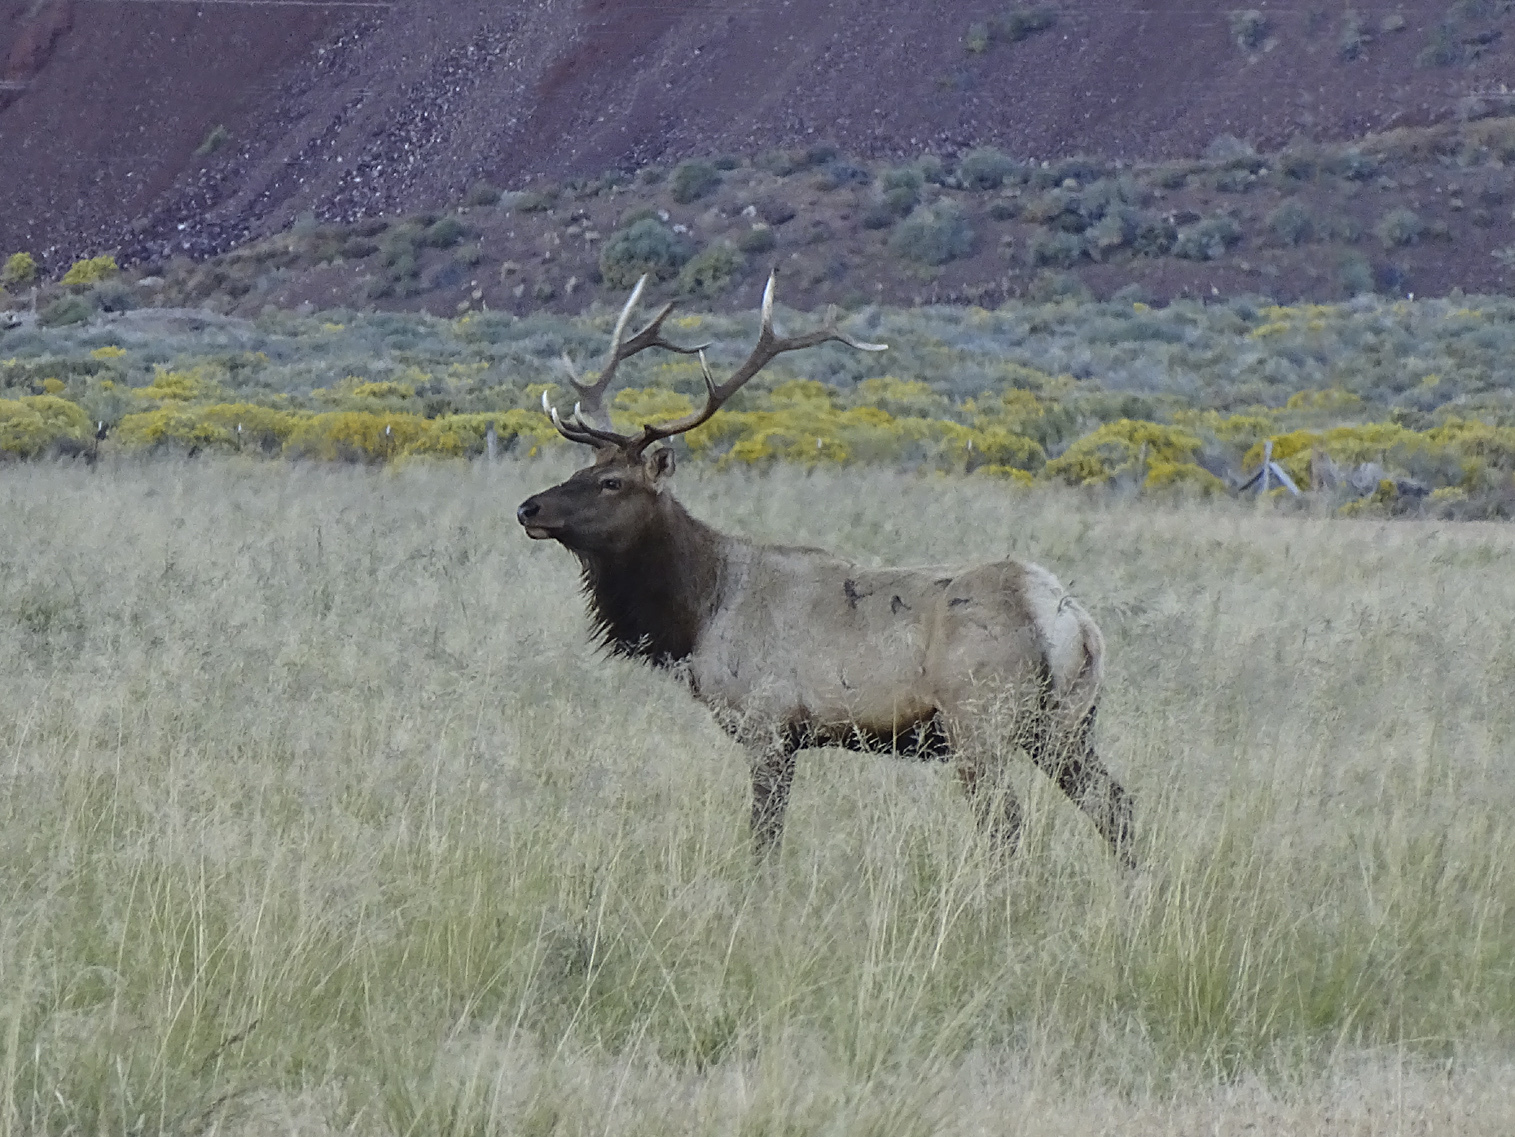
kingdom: Animalia
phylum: Chordata
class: Mammalia
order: Artiodactyla
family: Cervidae
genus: Cervus
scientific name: Cervus elaphus
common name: Red deer
